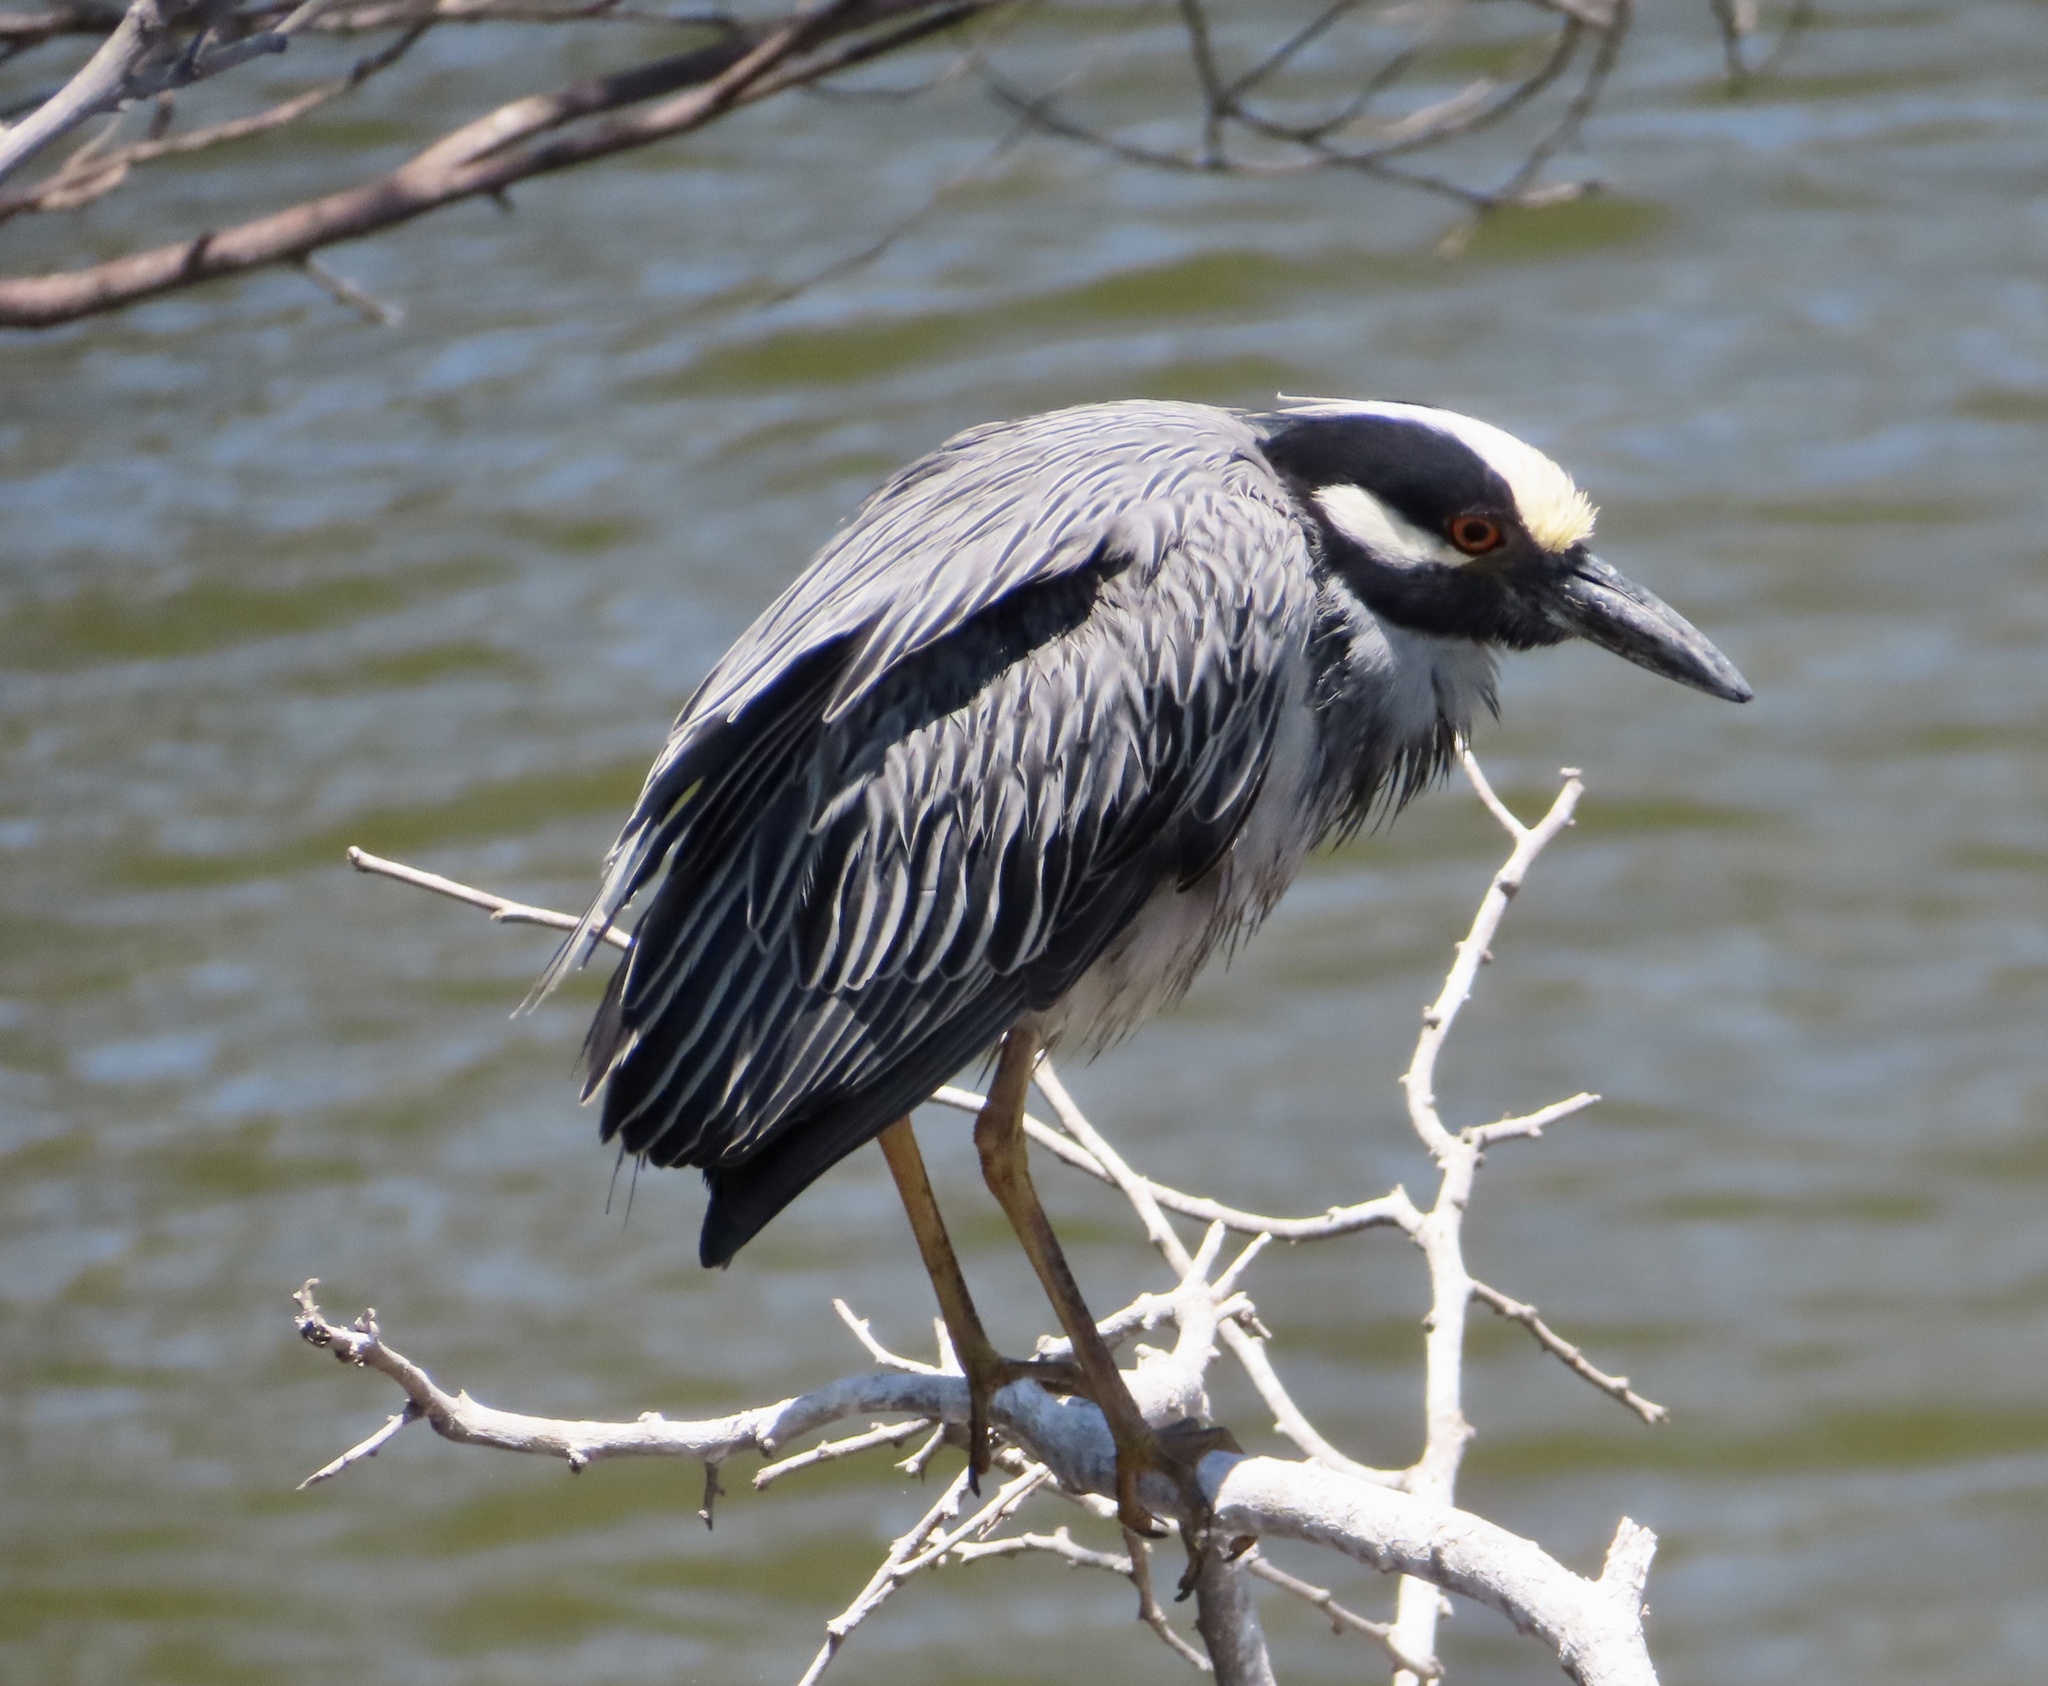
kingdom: Animalia
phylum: Chordata
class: Aves
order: Pelecaniformes
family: Ardeidae
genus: Nyctanassa
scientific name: Nyctanassa violacea
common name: Yellow-crowned night heron
